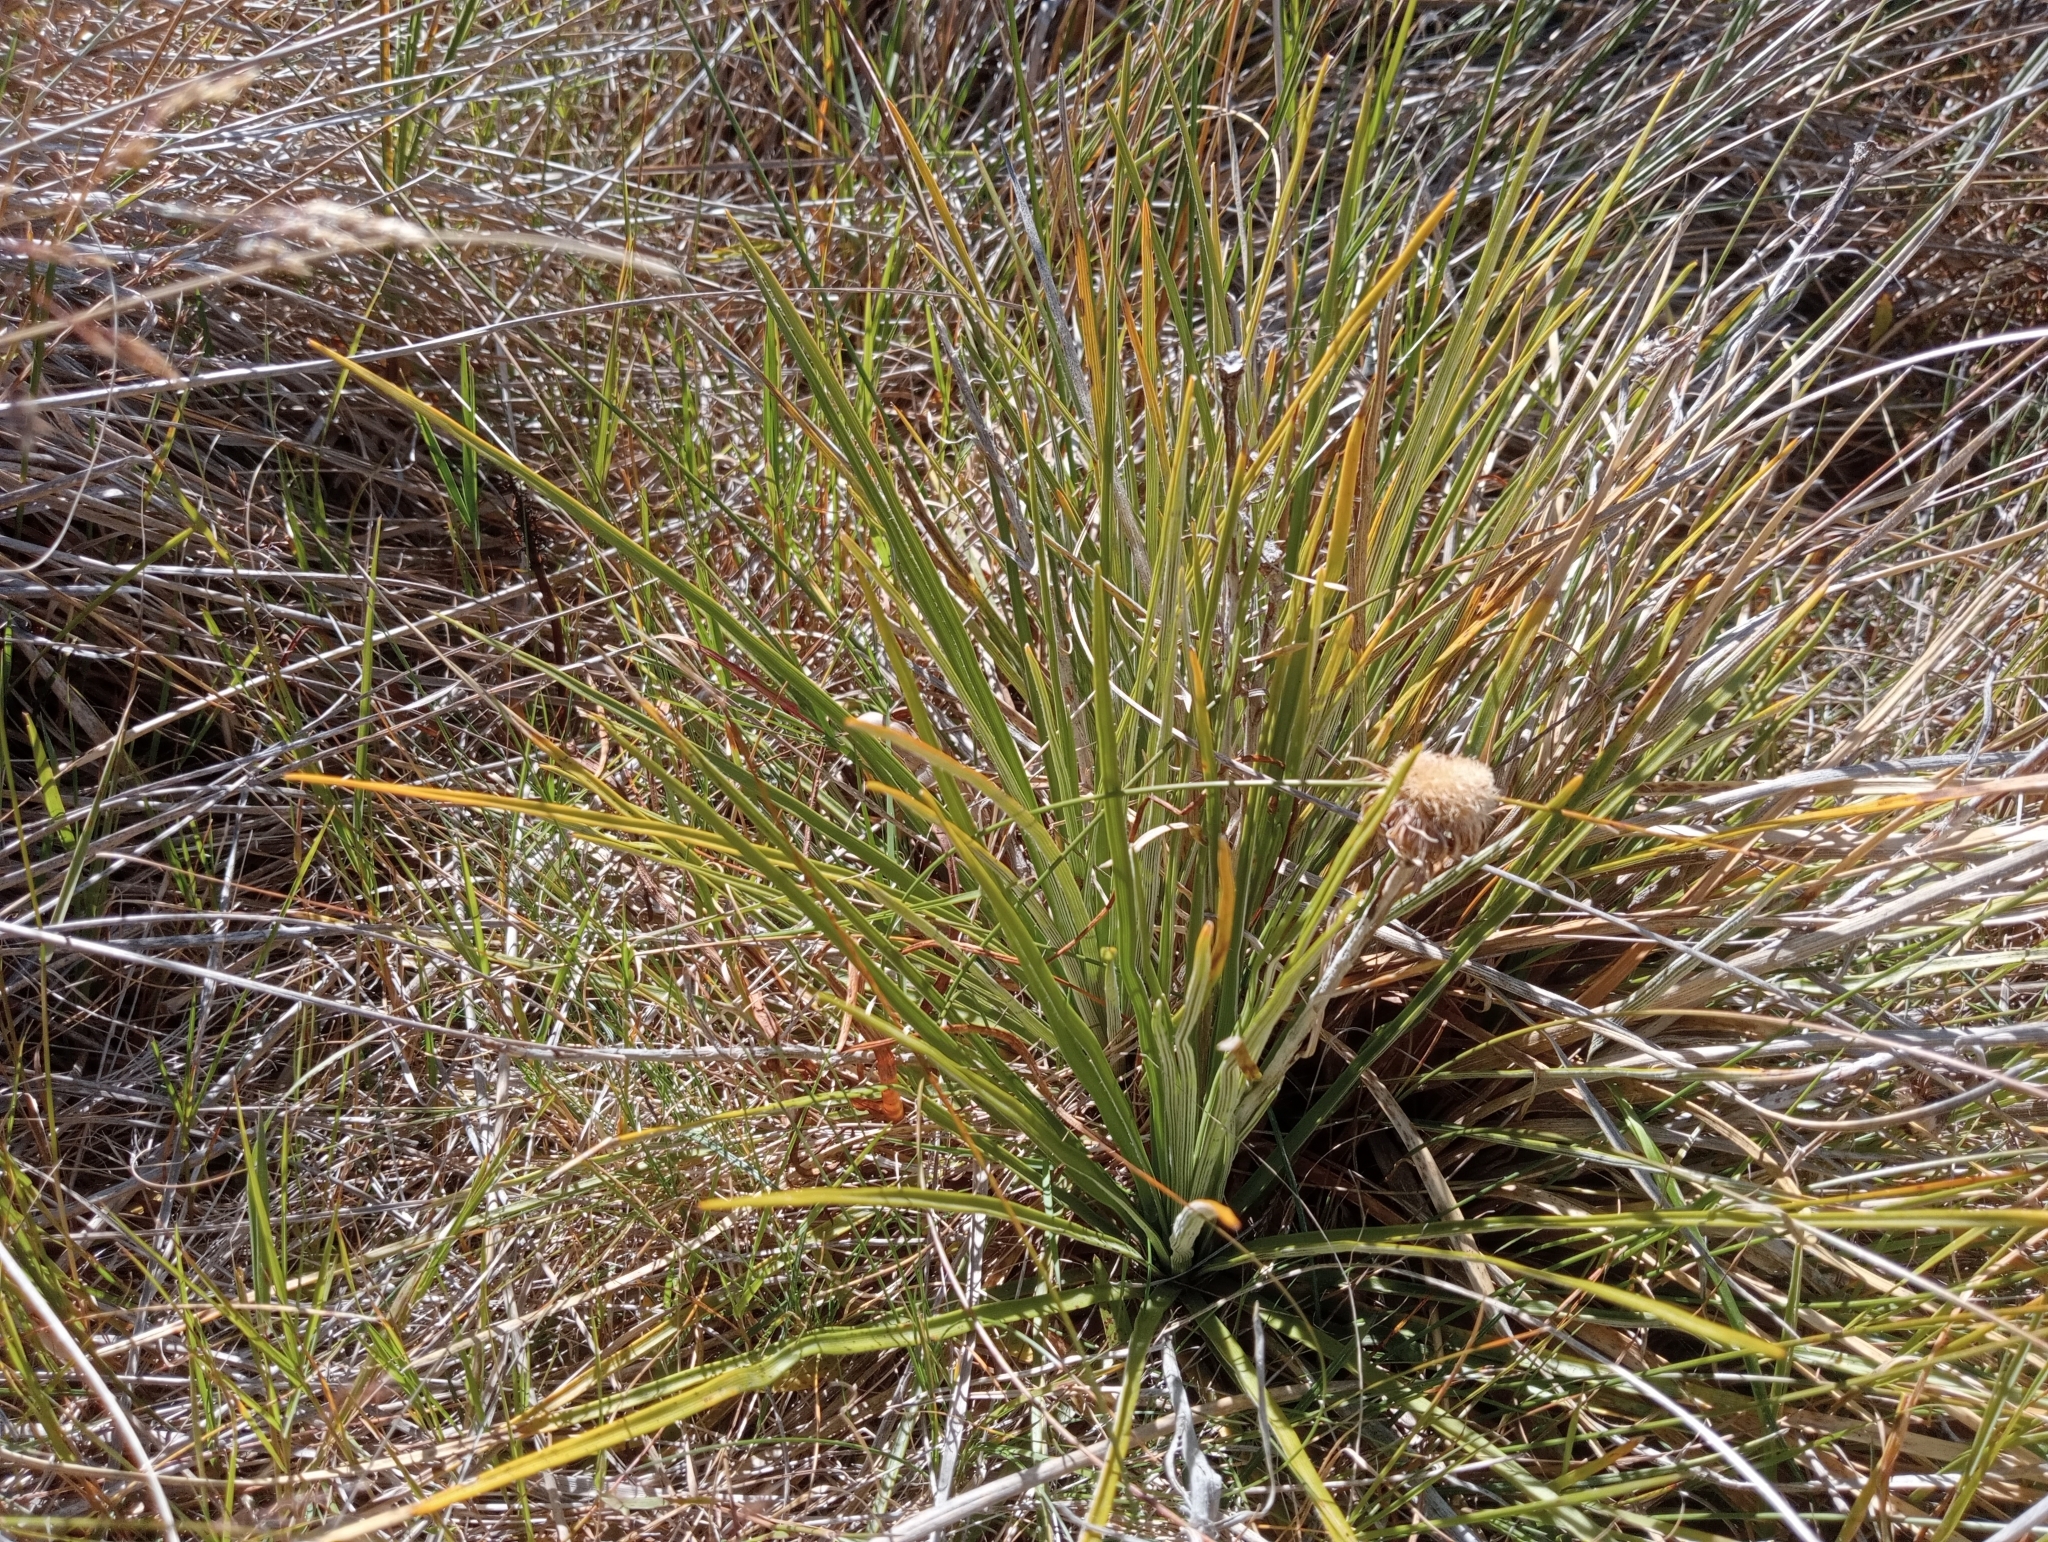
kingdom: Plantae
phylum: Tracheophyta
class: Magnoliopsida
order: Asterales
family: Asteraceae
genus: Celmisia
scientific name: Celmisia lyallii
